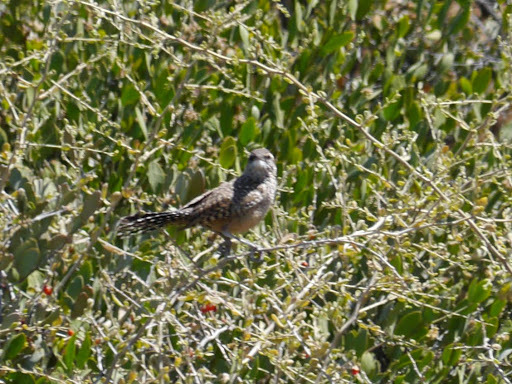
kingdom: Animalia
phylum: Chordata
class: Aves
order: Passeriformes
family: Troglodytidae
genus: Campylorhynchus
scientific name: Campylorhynchus brunneicapillus
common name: Cactus wren
